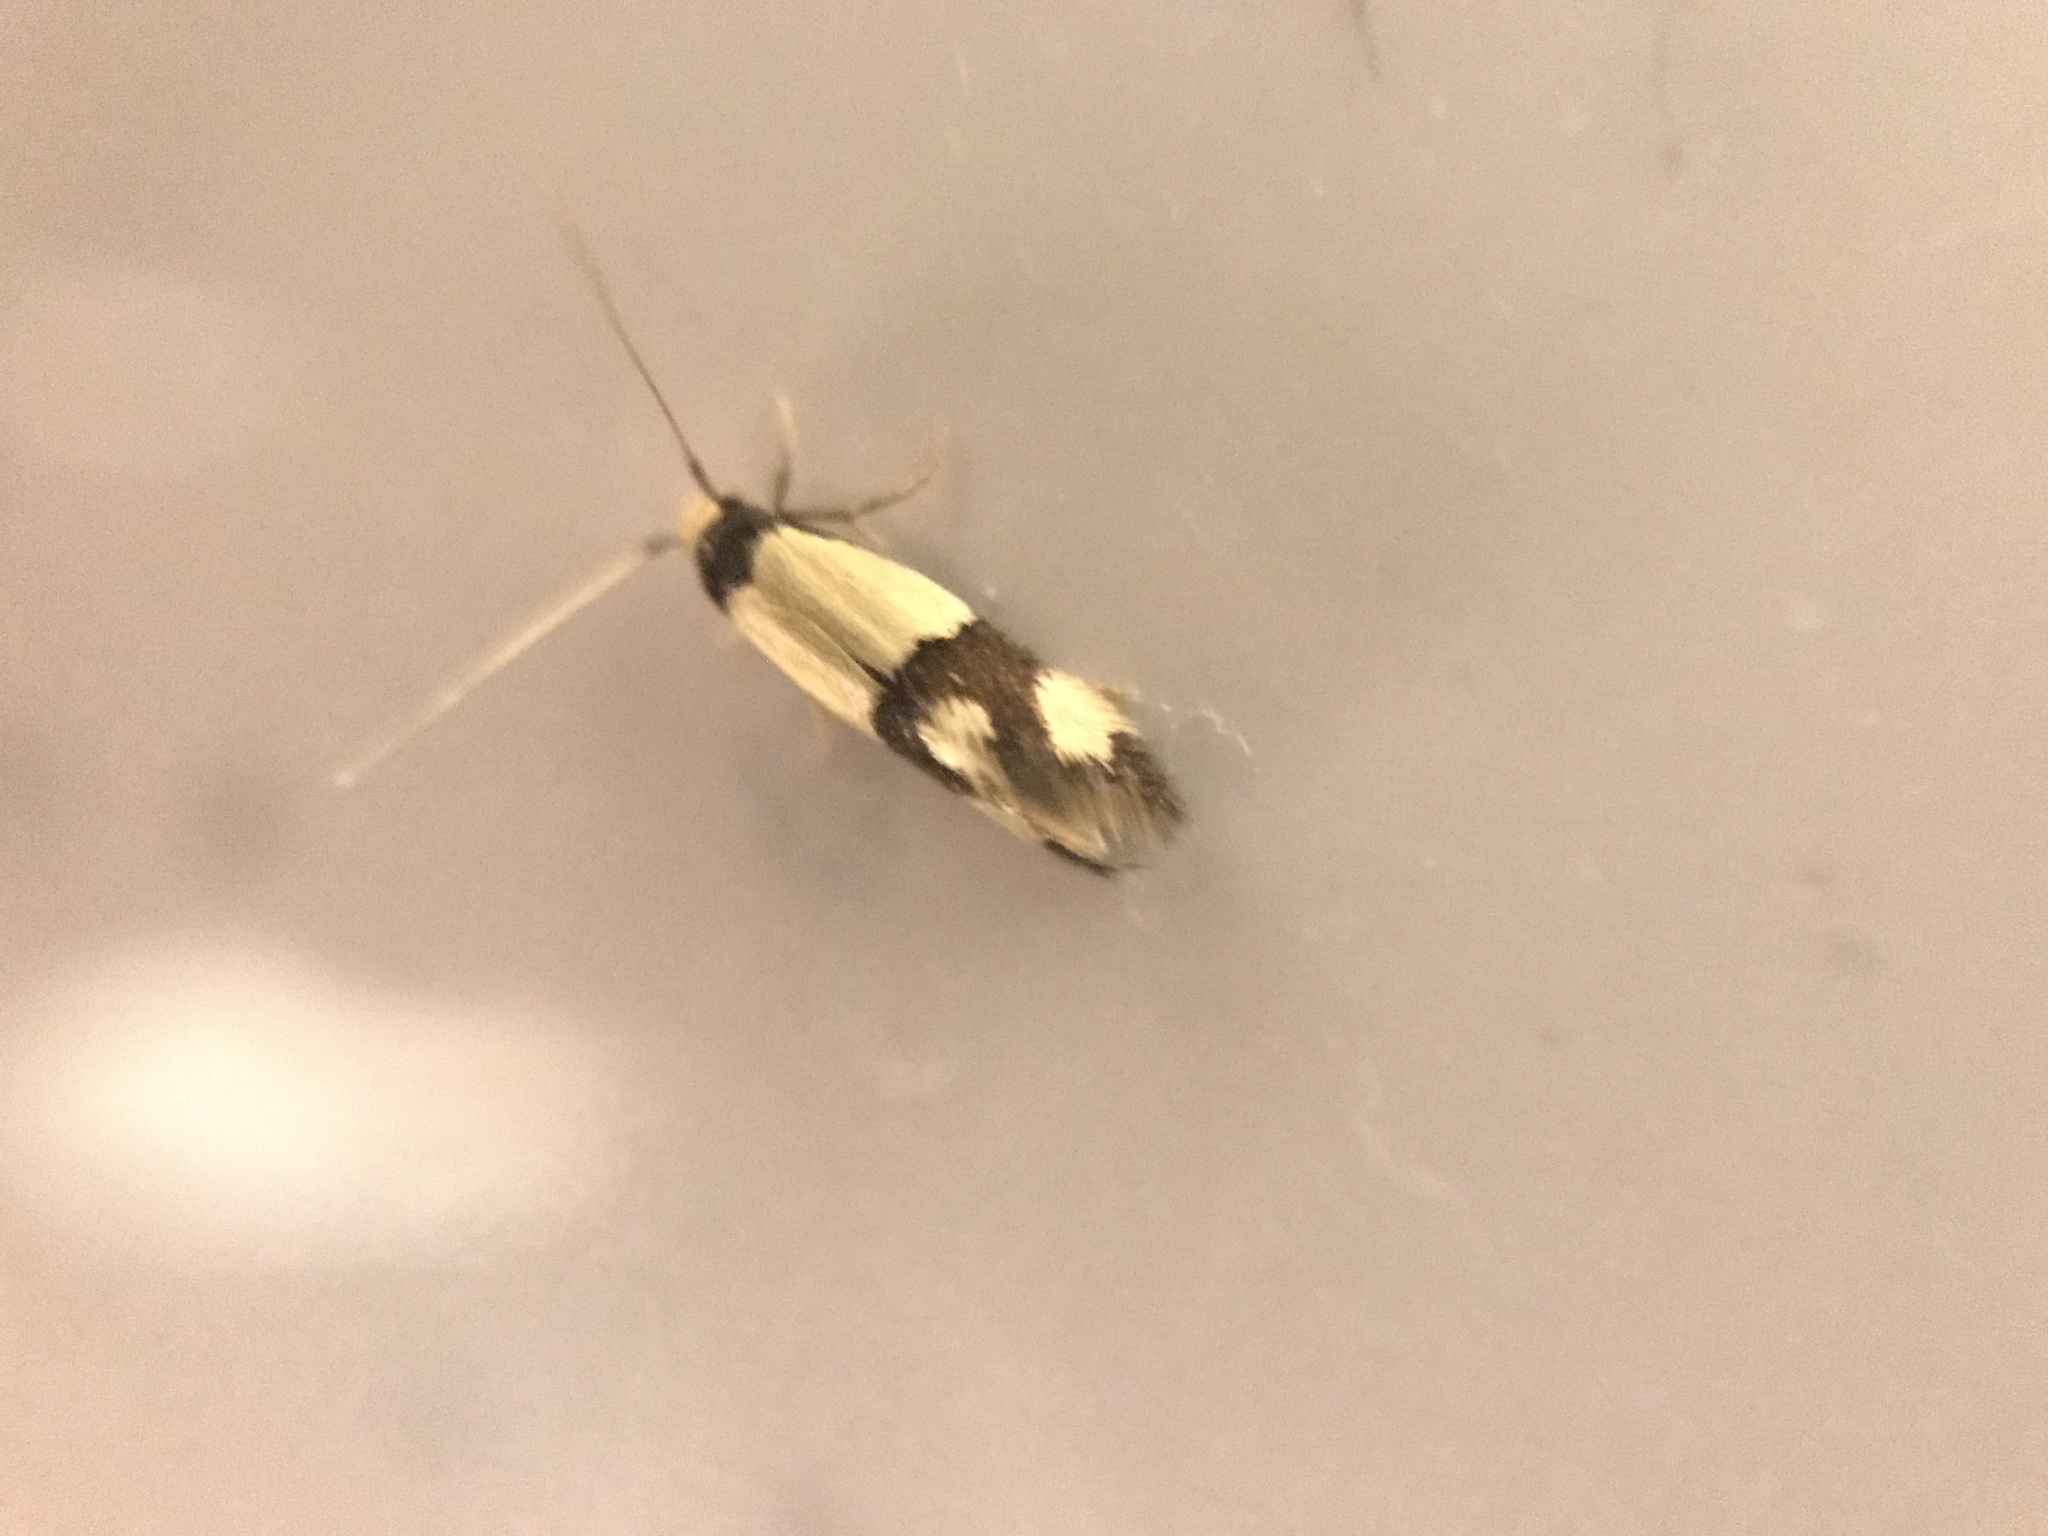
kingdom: Animalia
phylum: Arthropoda
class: Insecta
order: Lepidoptera
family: Tineidae
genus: Opogona
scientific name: Opogona comptella
